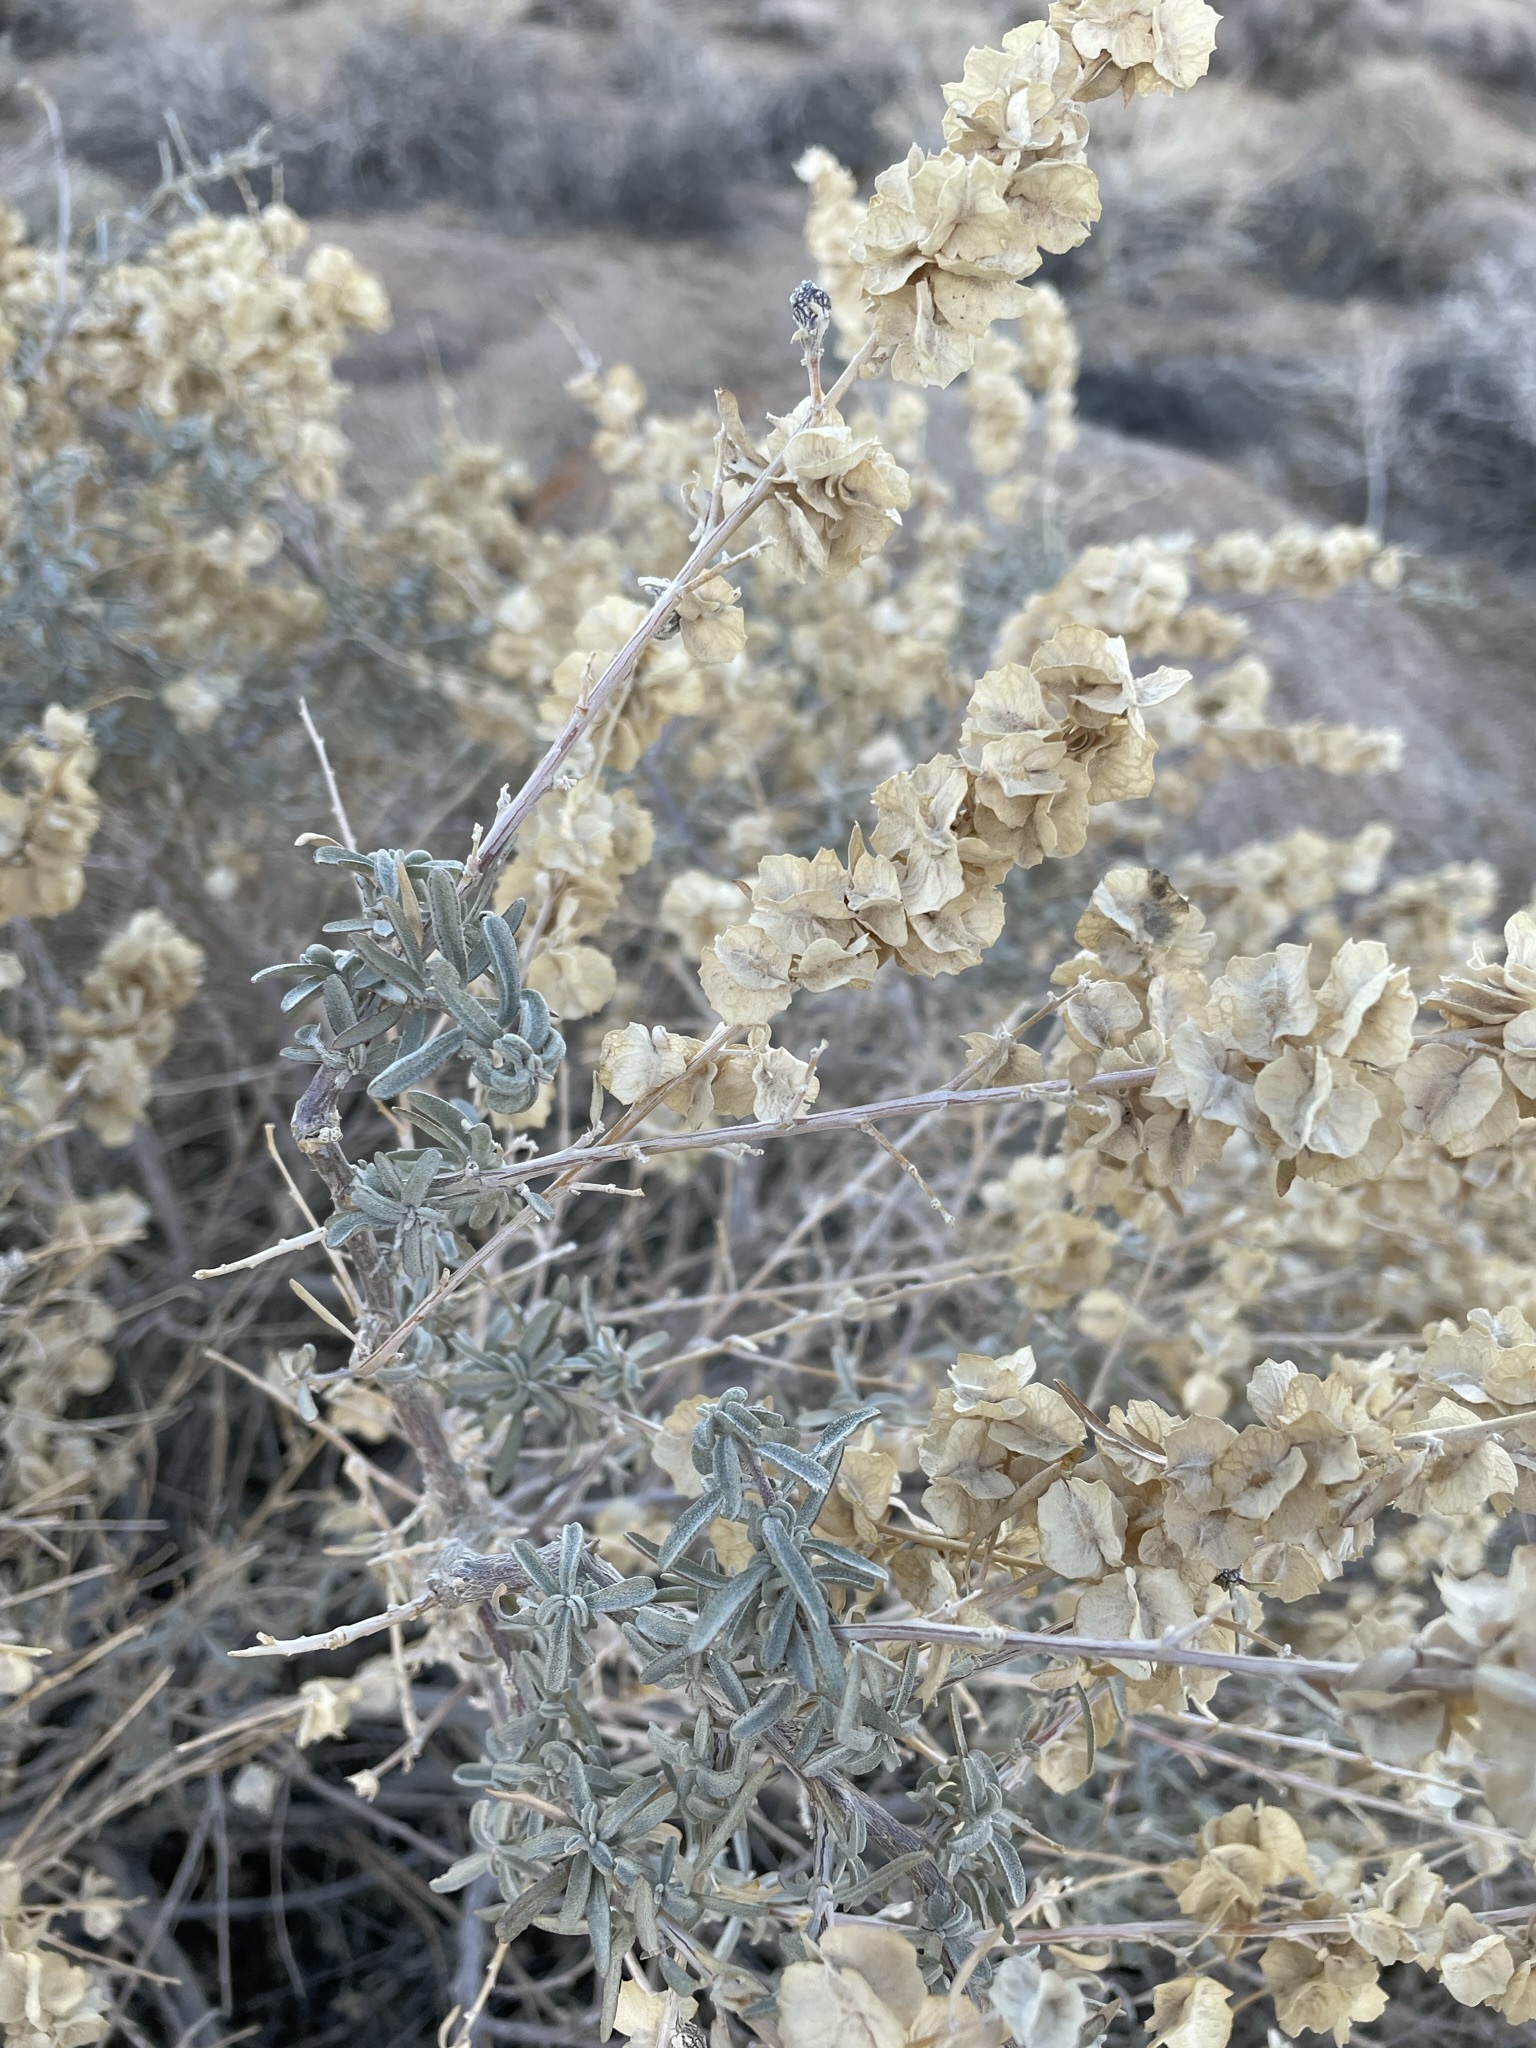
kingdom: Plantae
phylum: Tracheophyta
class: Magnoliopsida
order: Caryophyllales
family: Amaranthaceae
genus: Atriplex
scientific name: Atriplex canescens
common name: Four-wing saltbush
